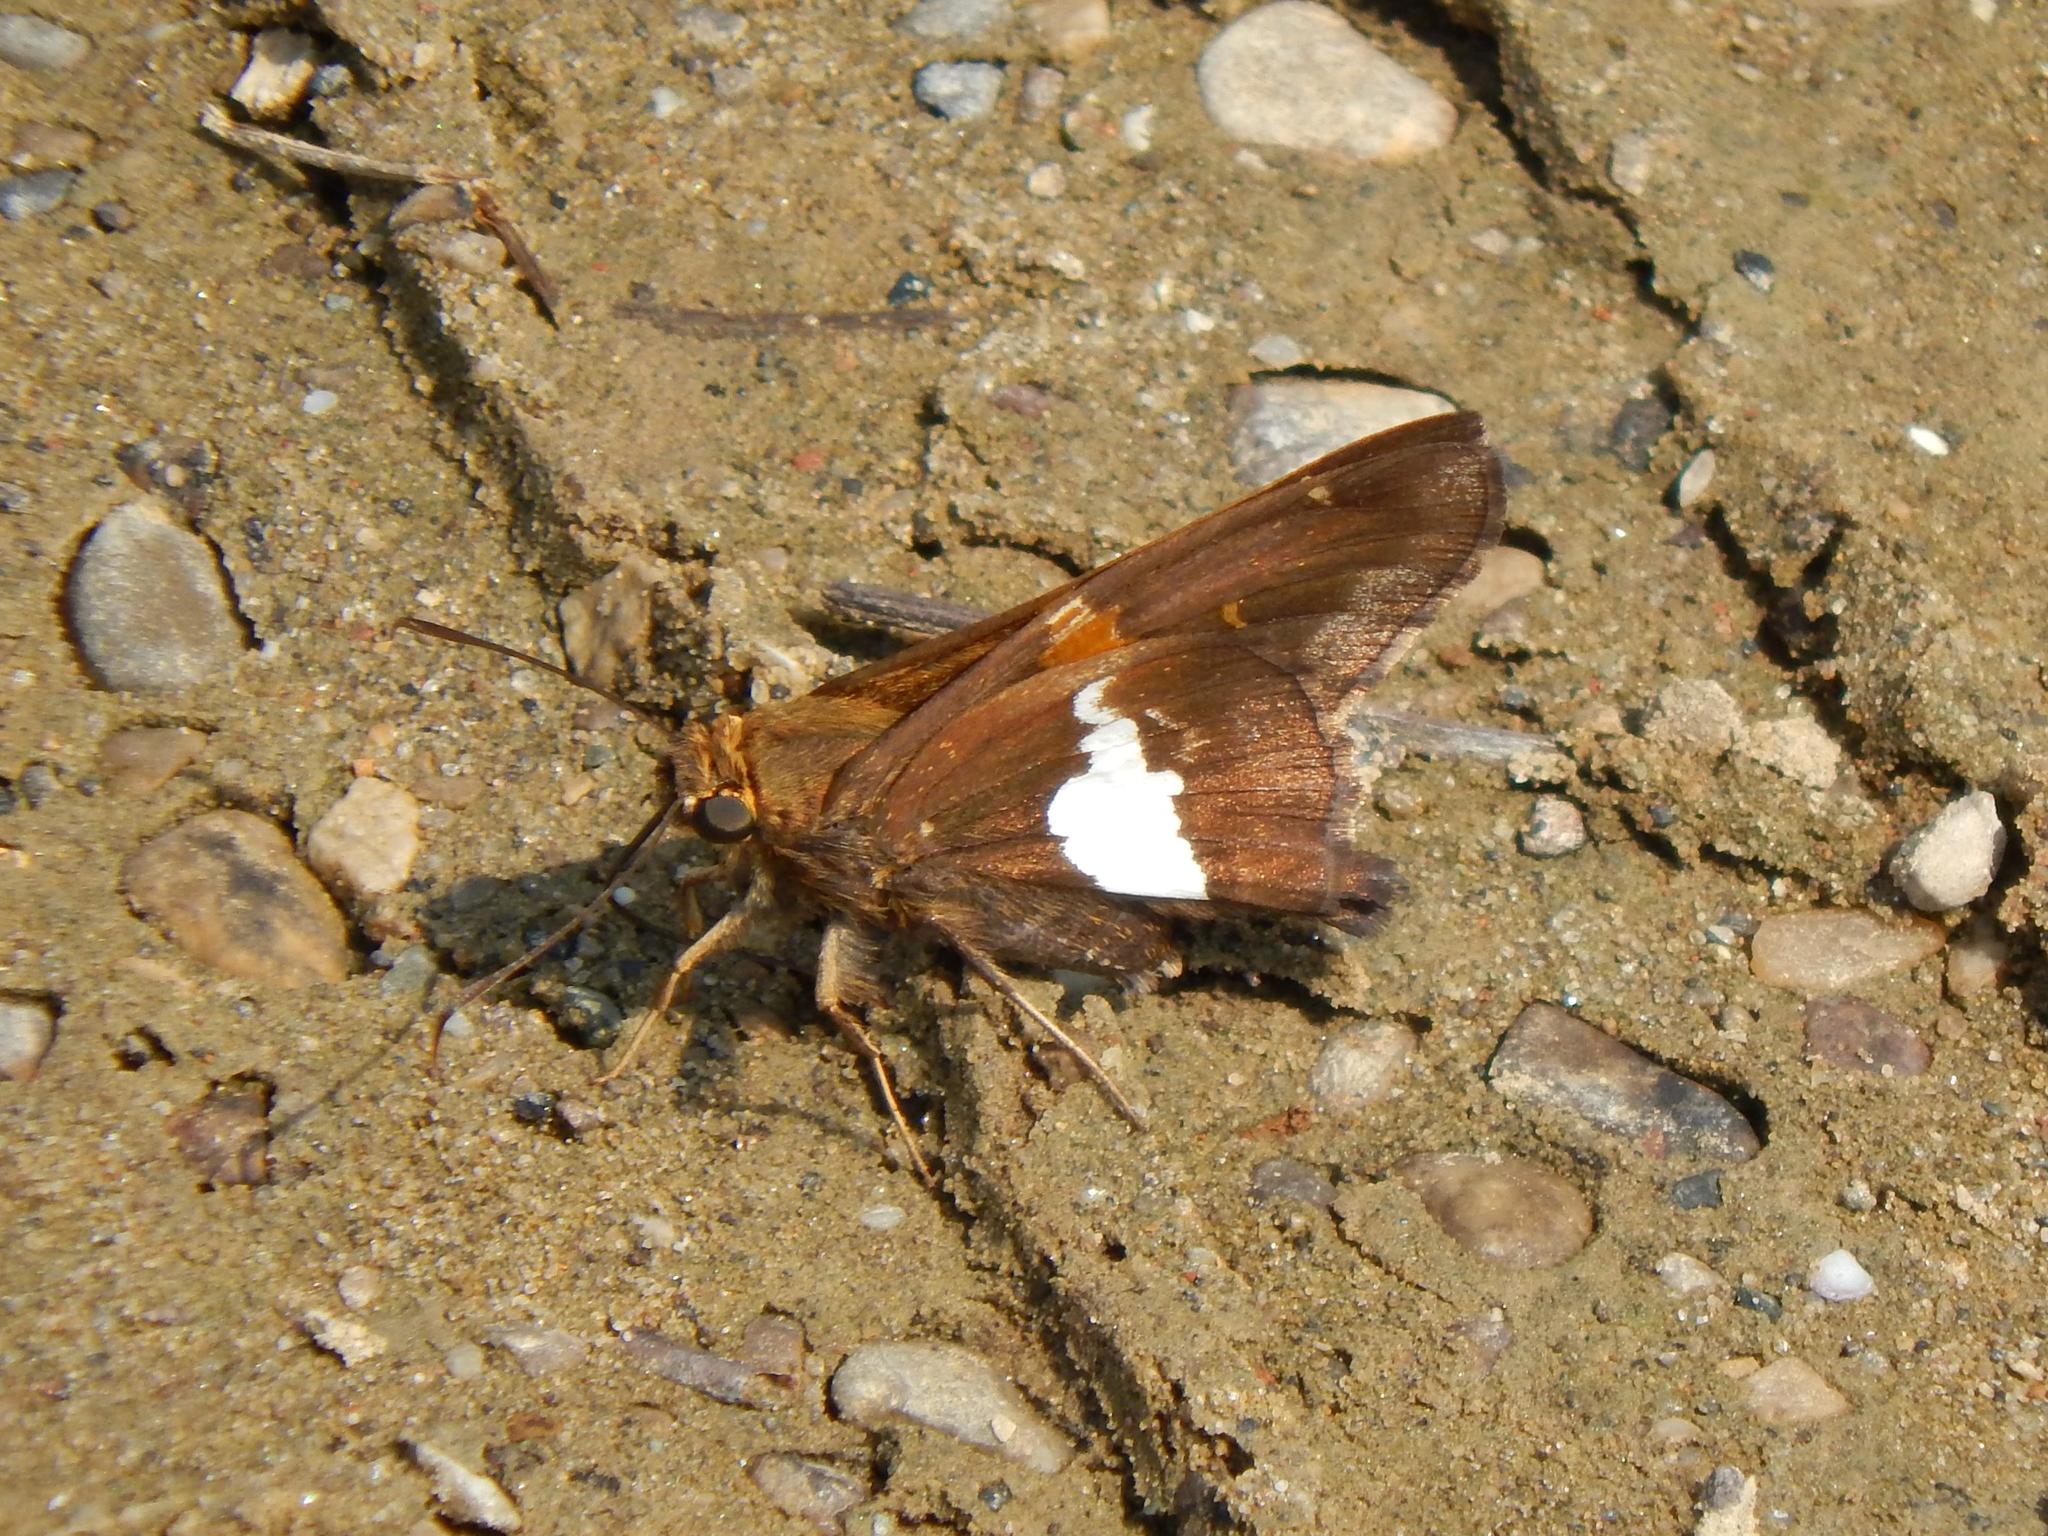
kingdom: Animalia
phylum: Arthropoda
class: Insecta
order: Lepidoptera
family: Hesperiidae
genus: Epargyreus
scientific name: Epargyreus clarus
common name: Silver-spotted skipper
